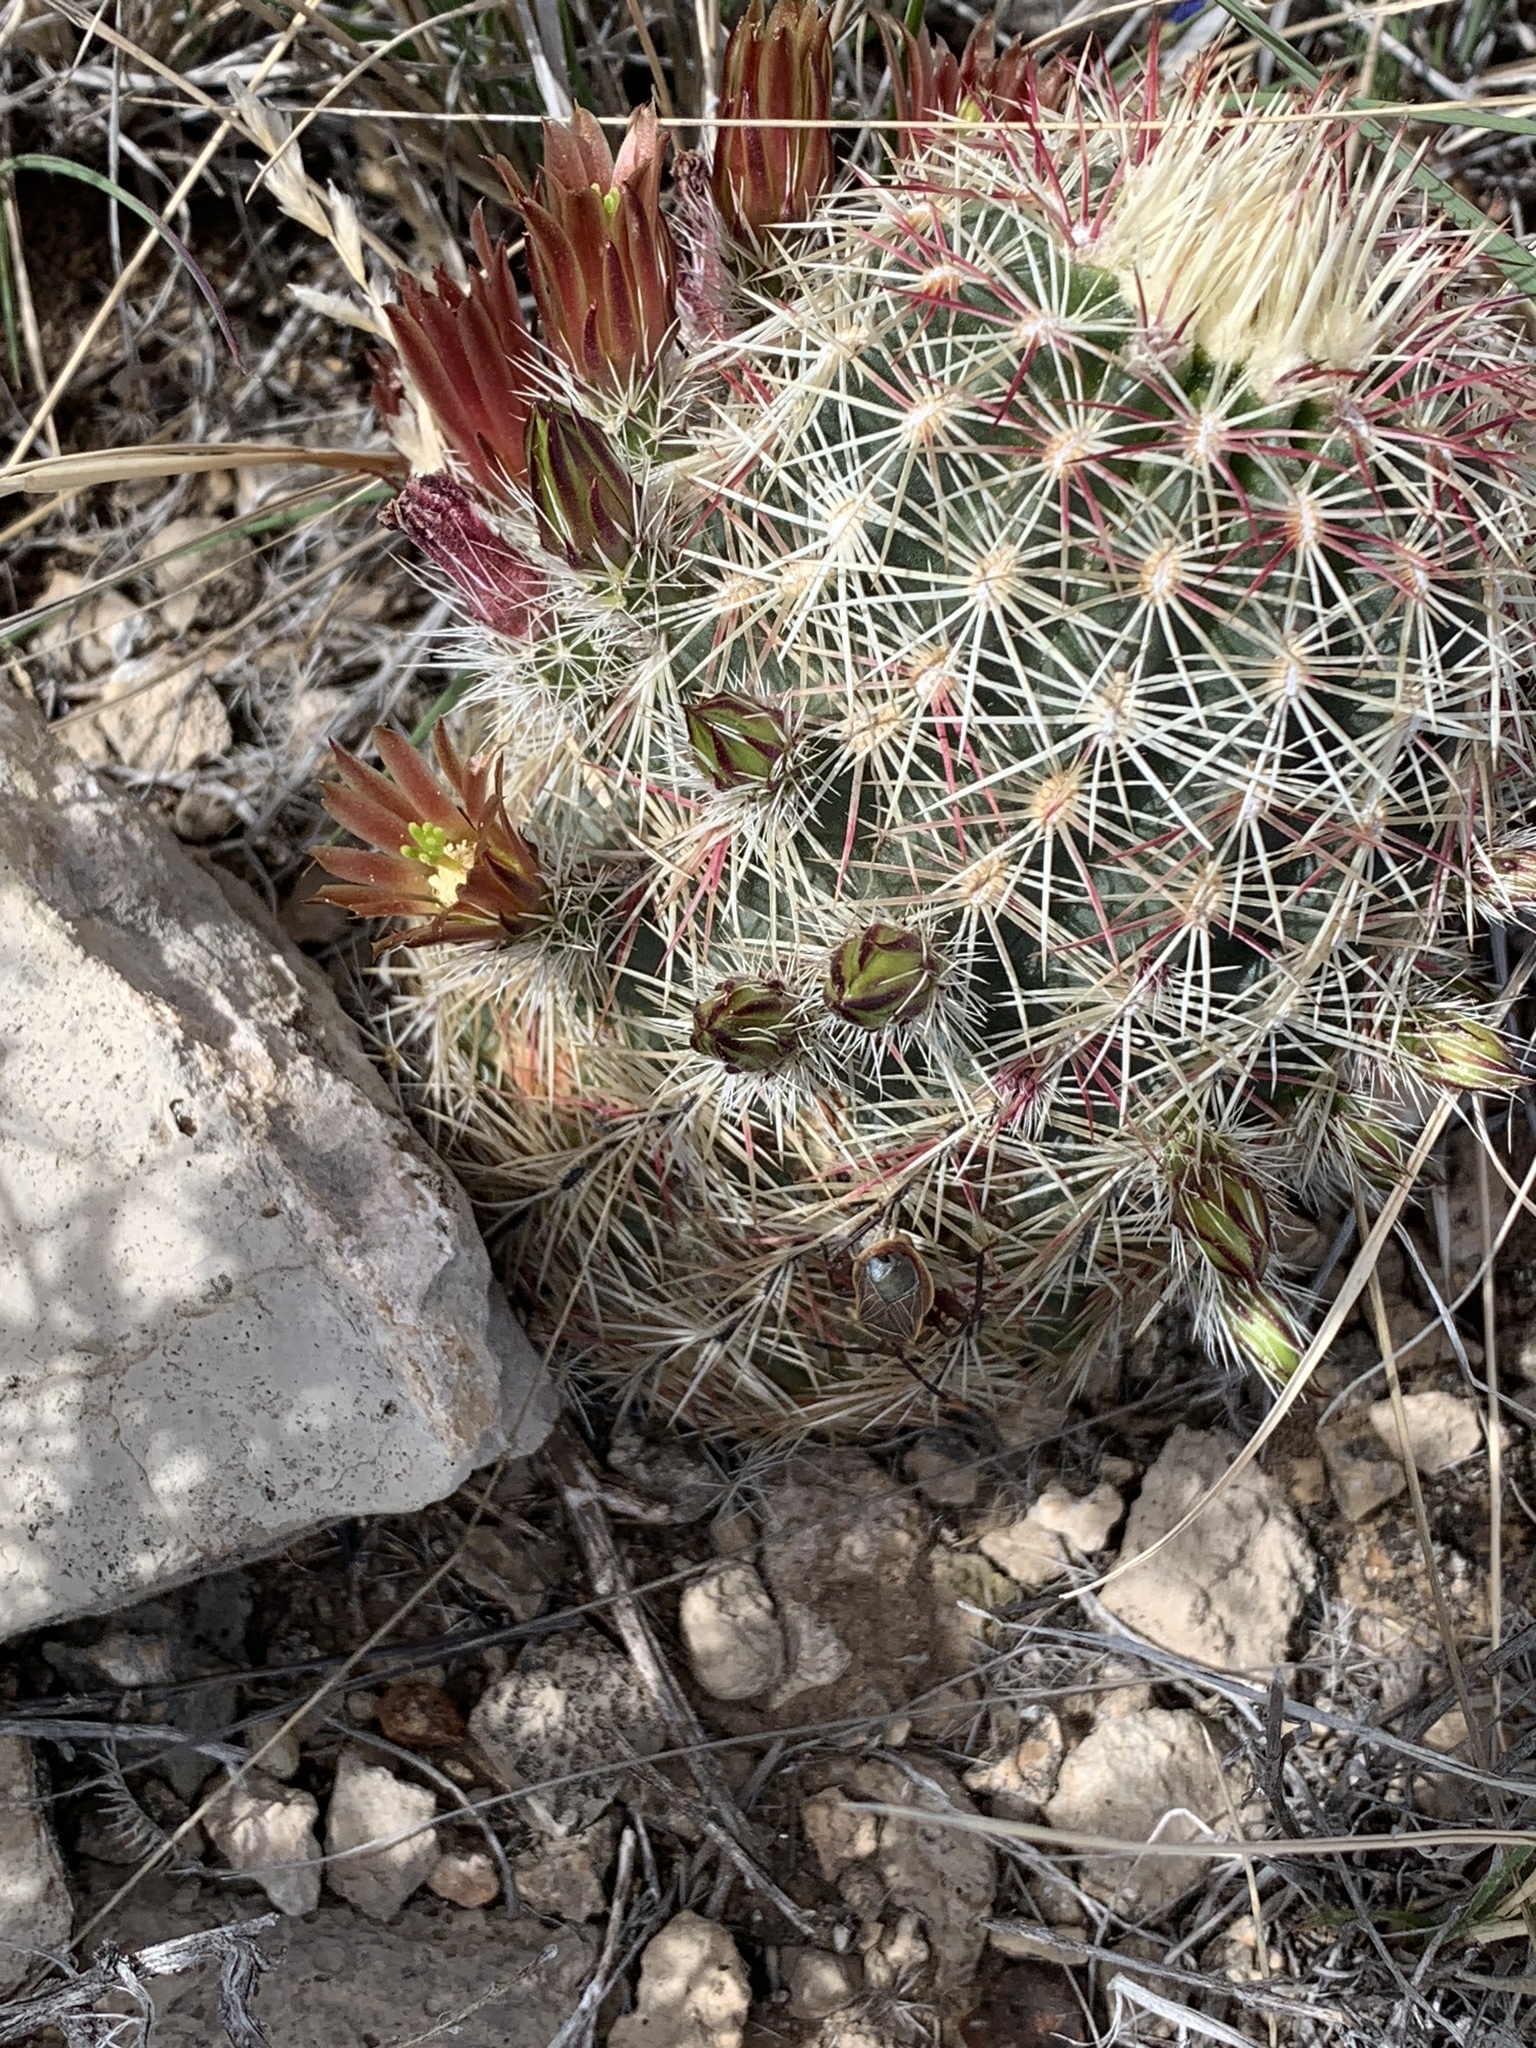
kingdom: Plantae
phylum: Tracheophyta
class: Magnoliopsida
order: Caryophyllales
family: Cactaceae
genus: Echinocereus
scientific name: Echinocereus viridiflorus
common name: Nylon hedgehog cactus
